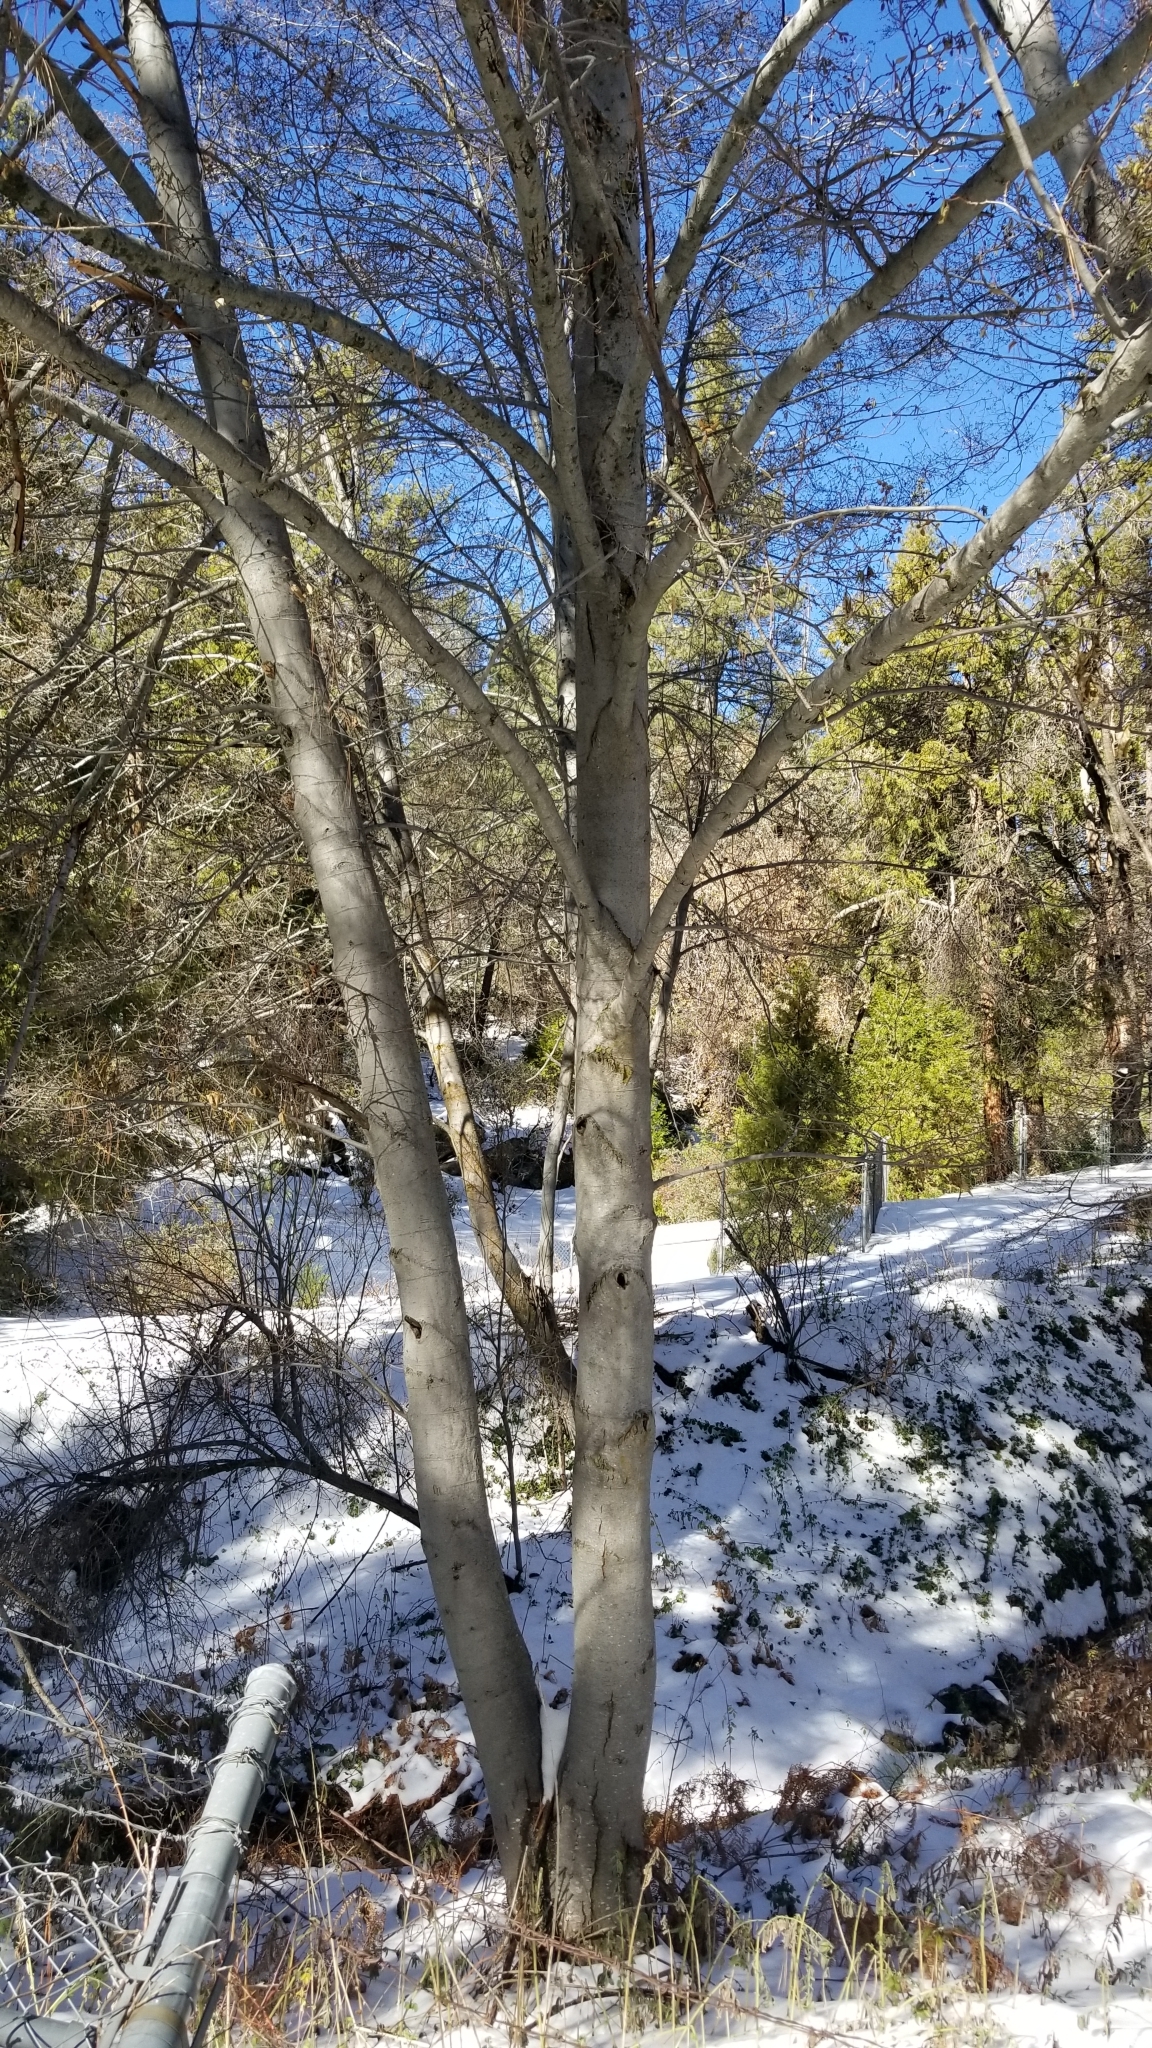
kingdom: Plantae
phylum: Tracheophyta
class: Magnoliopsida
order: Fagales
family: Betulaceae
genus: Alnus
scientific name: Alnus rhombifolia
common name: California alder
